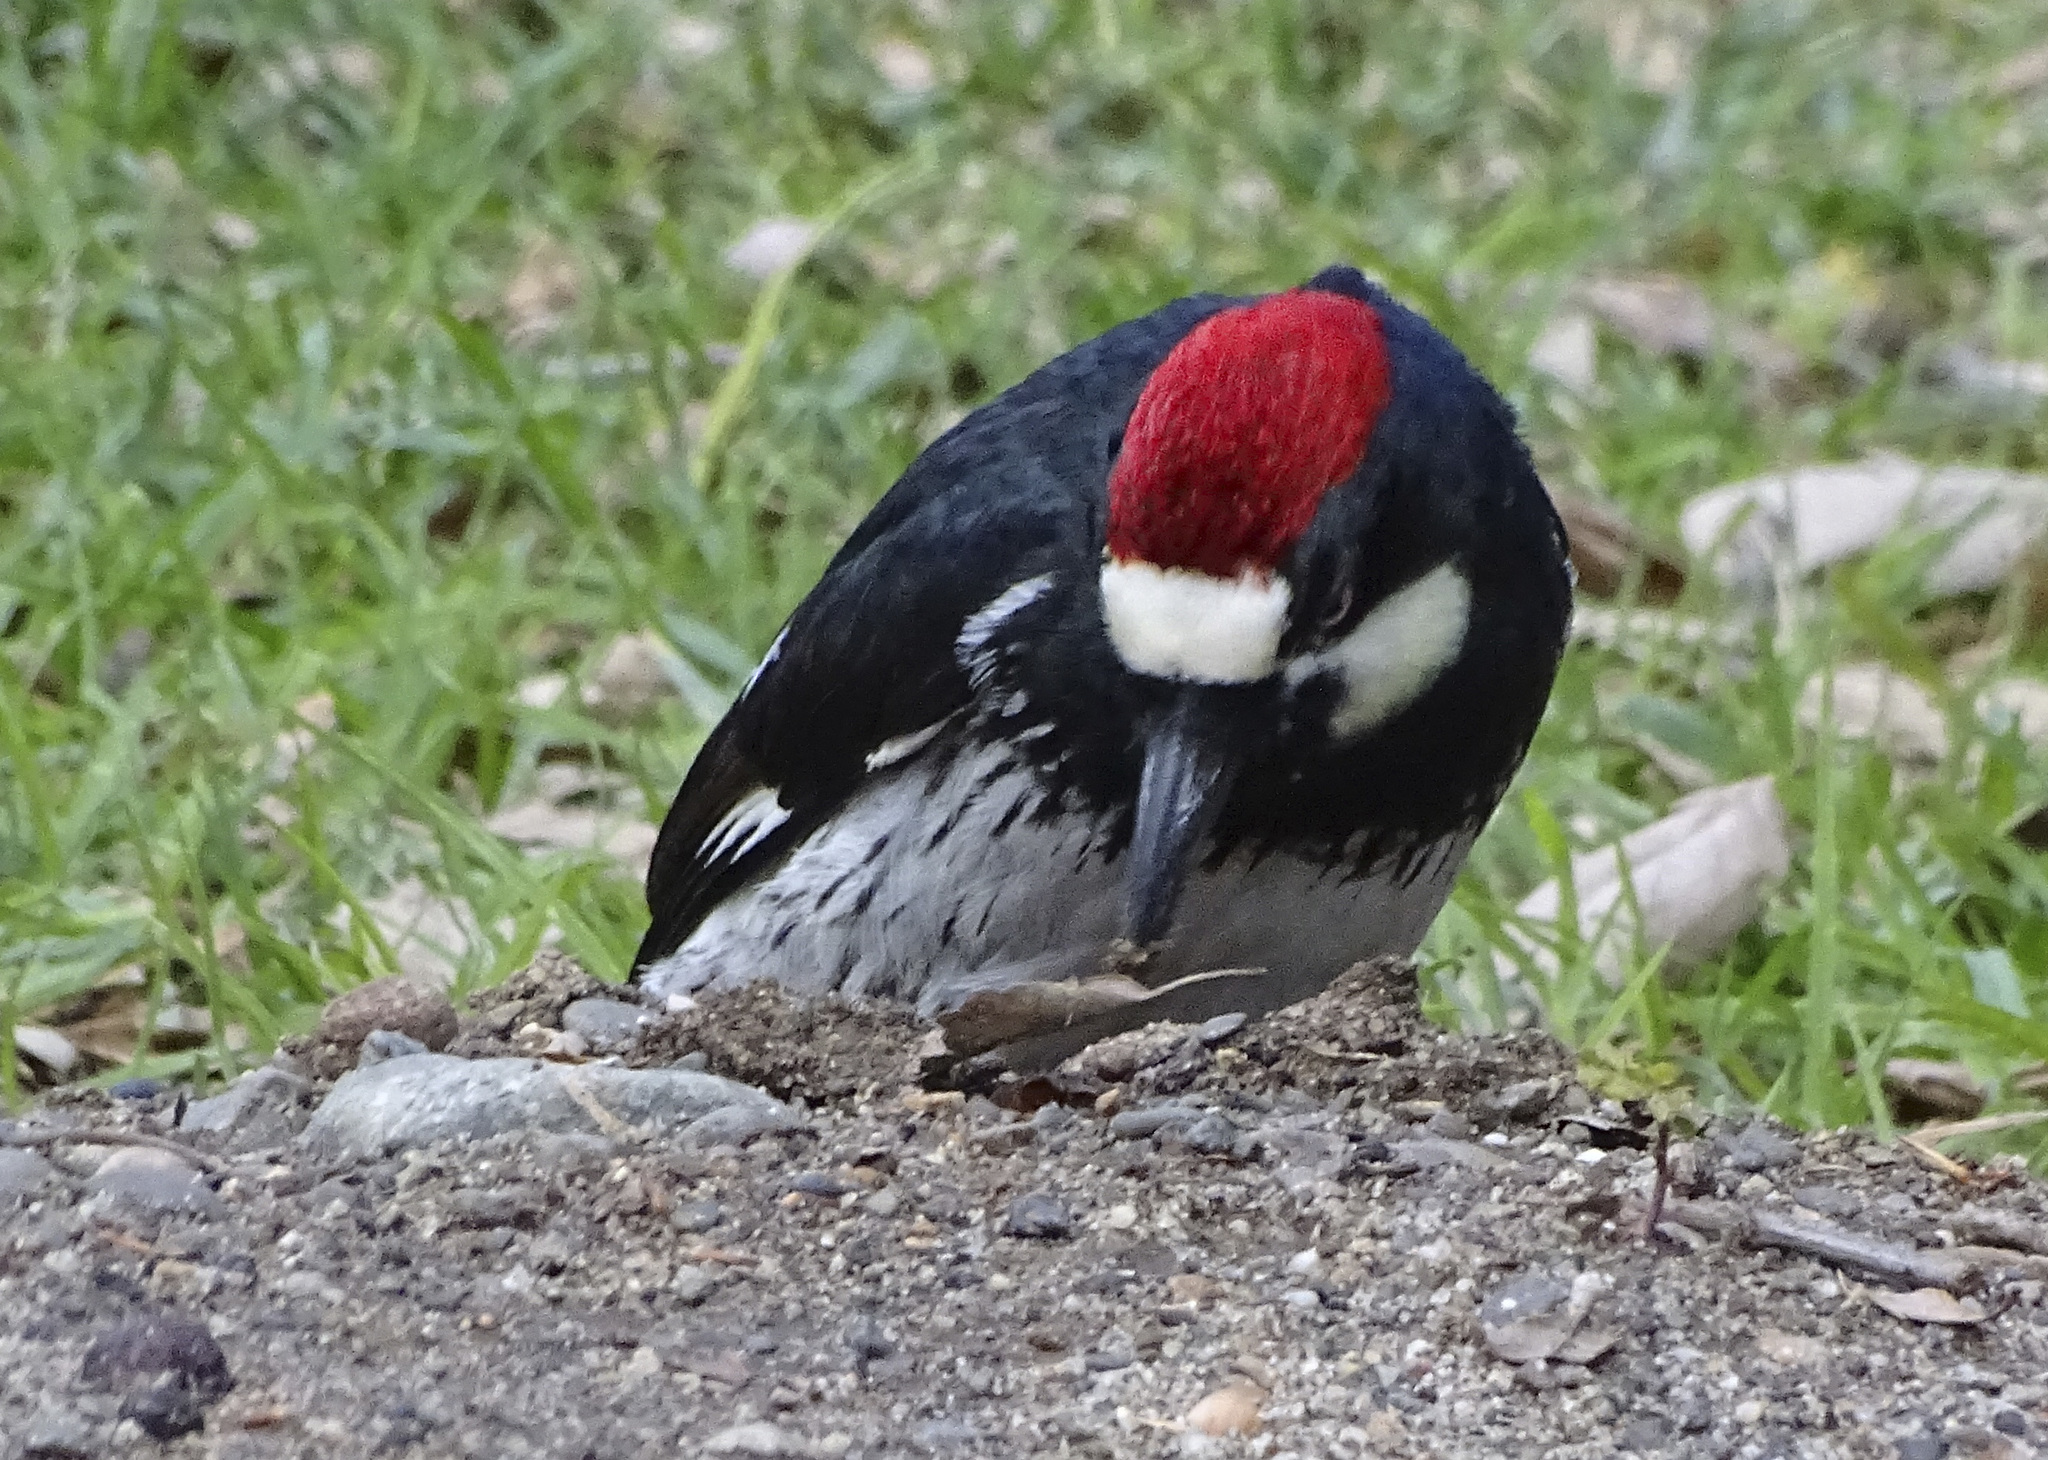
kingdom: Animalia
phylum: Chordata
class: Aves
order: Piciformes
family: Picidae
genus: Melanerpes
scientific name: Melanerpes formicivorus
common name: Acorn woodpecker
